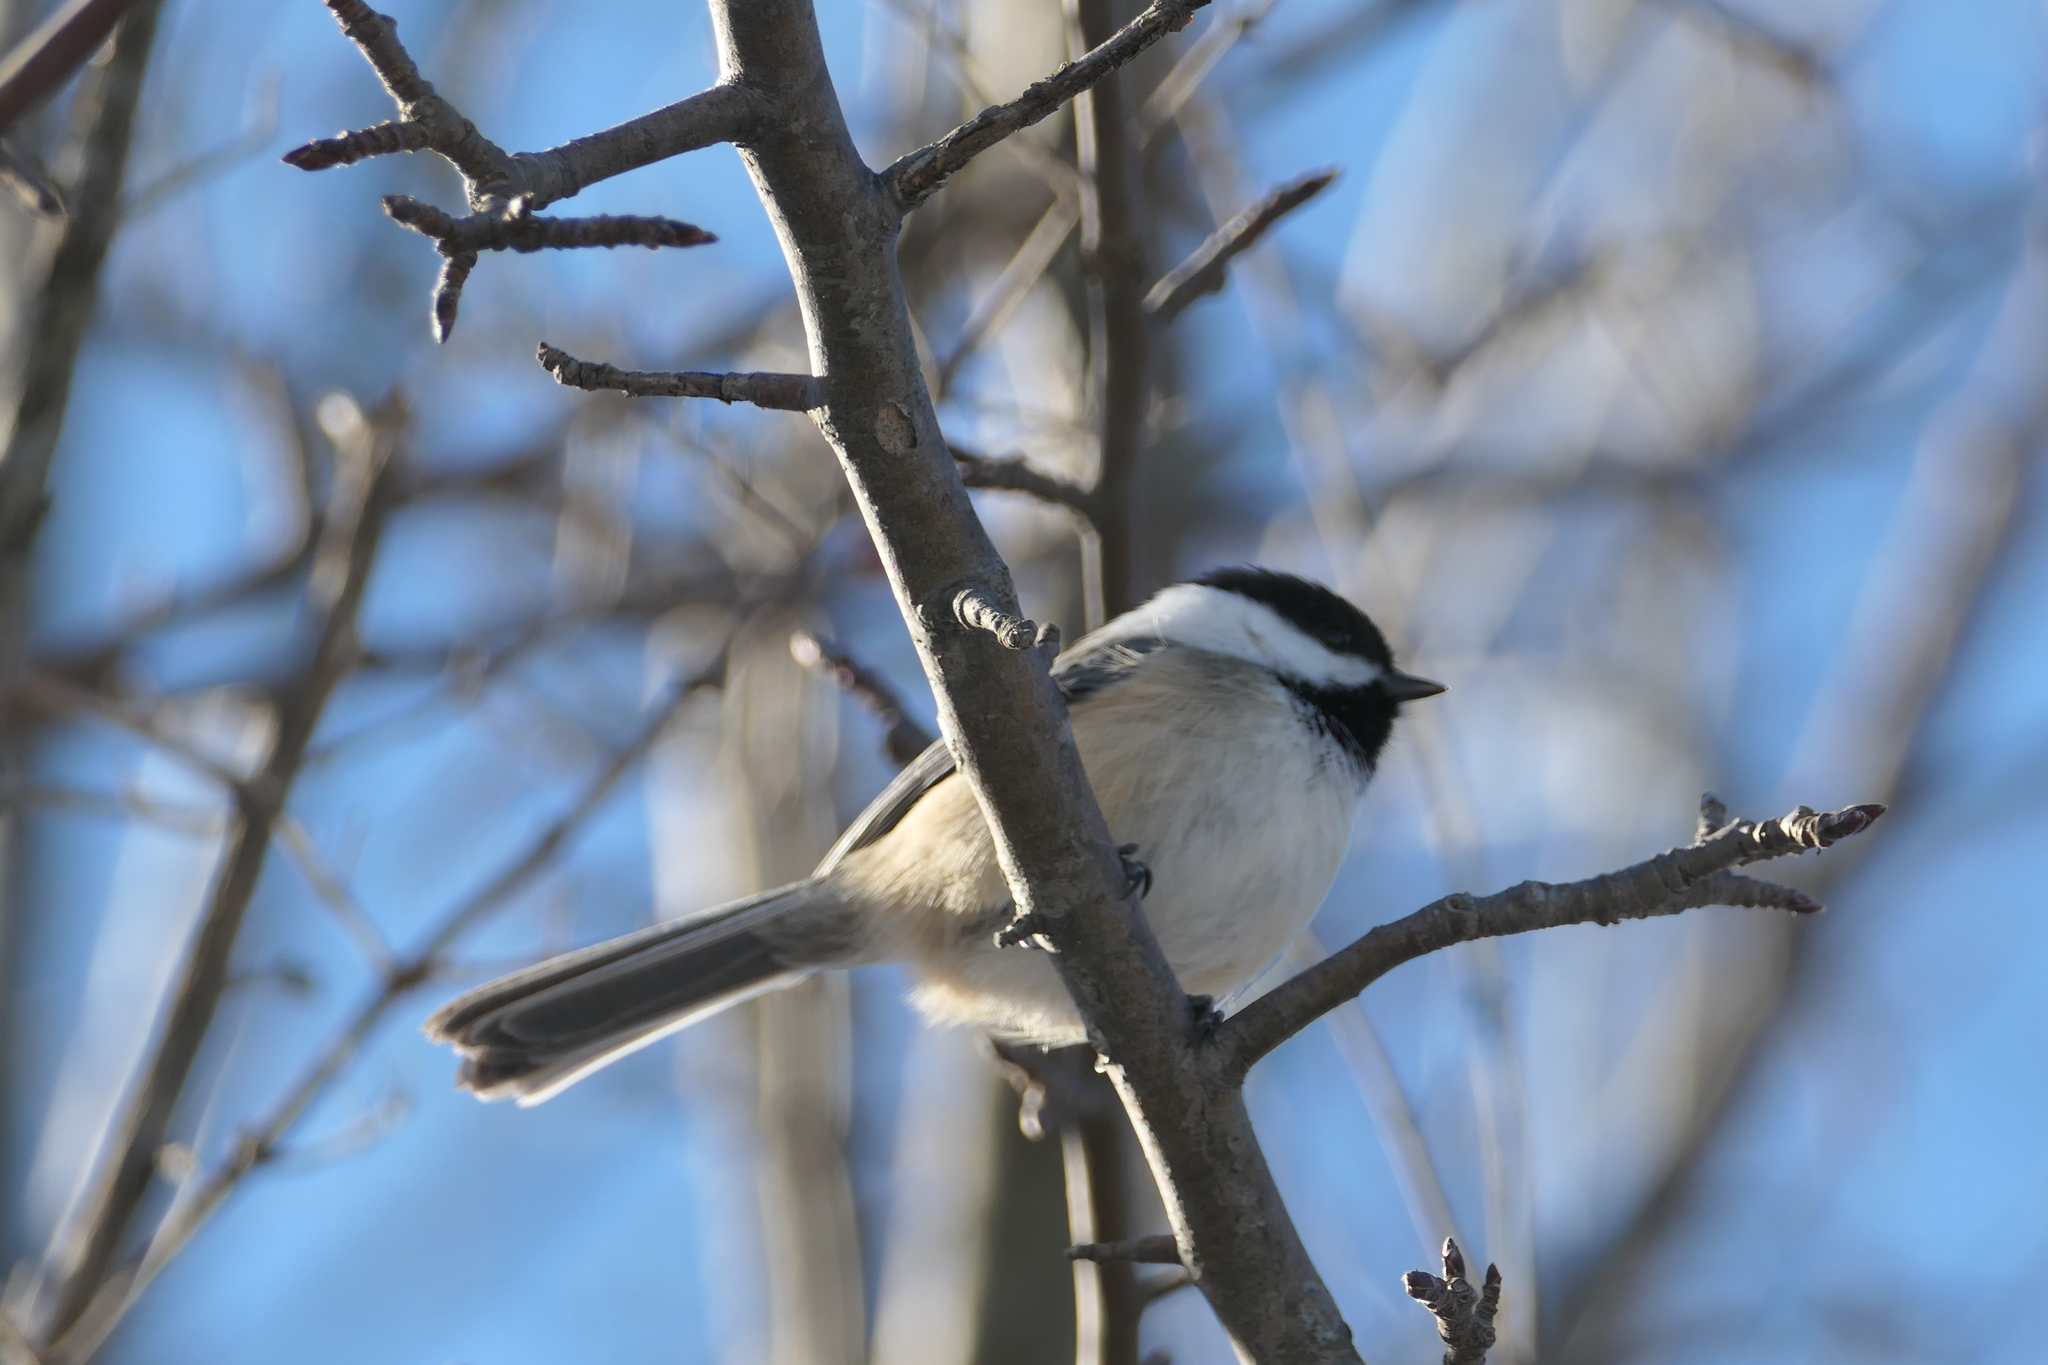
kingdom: Animalia
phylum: Chordata
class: Aves
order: Passeriformes
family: Paridae
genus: Poecile
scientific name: Poecile atricapillus
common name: Black-capped chickadee
